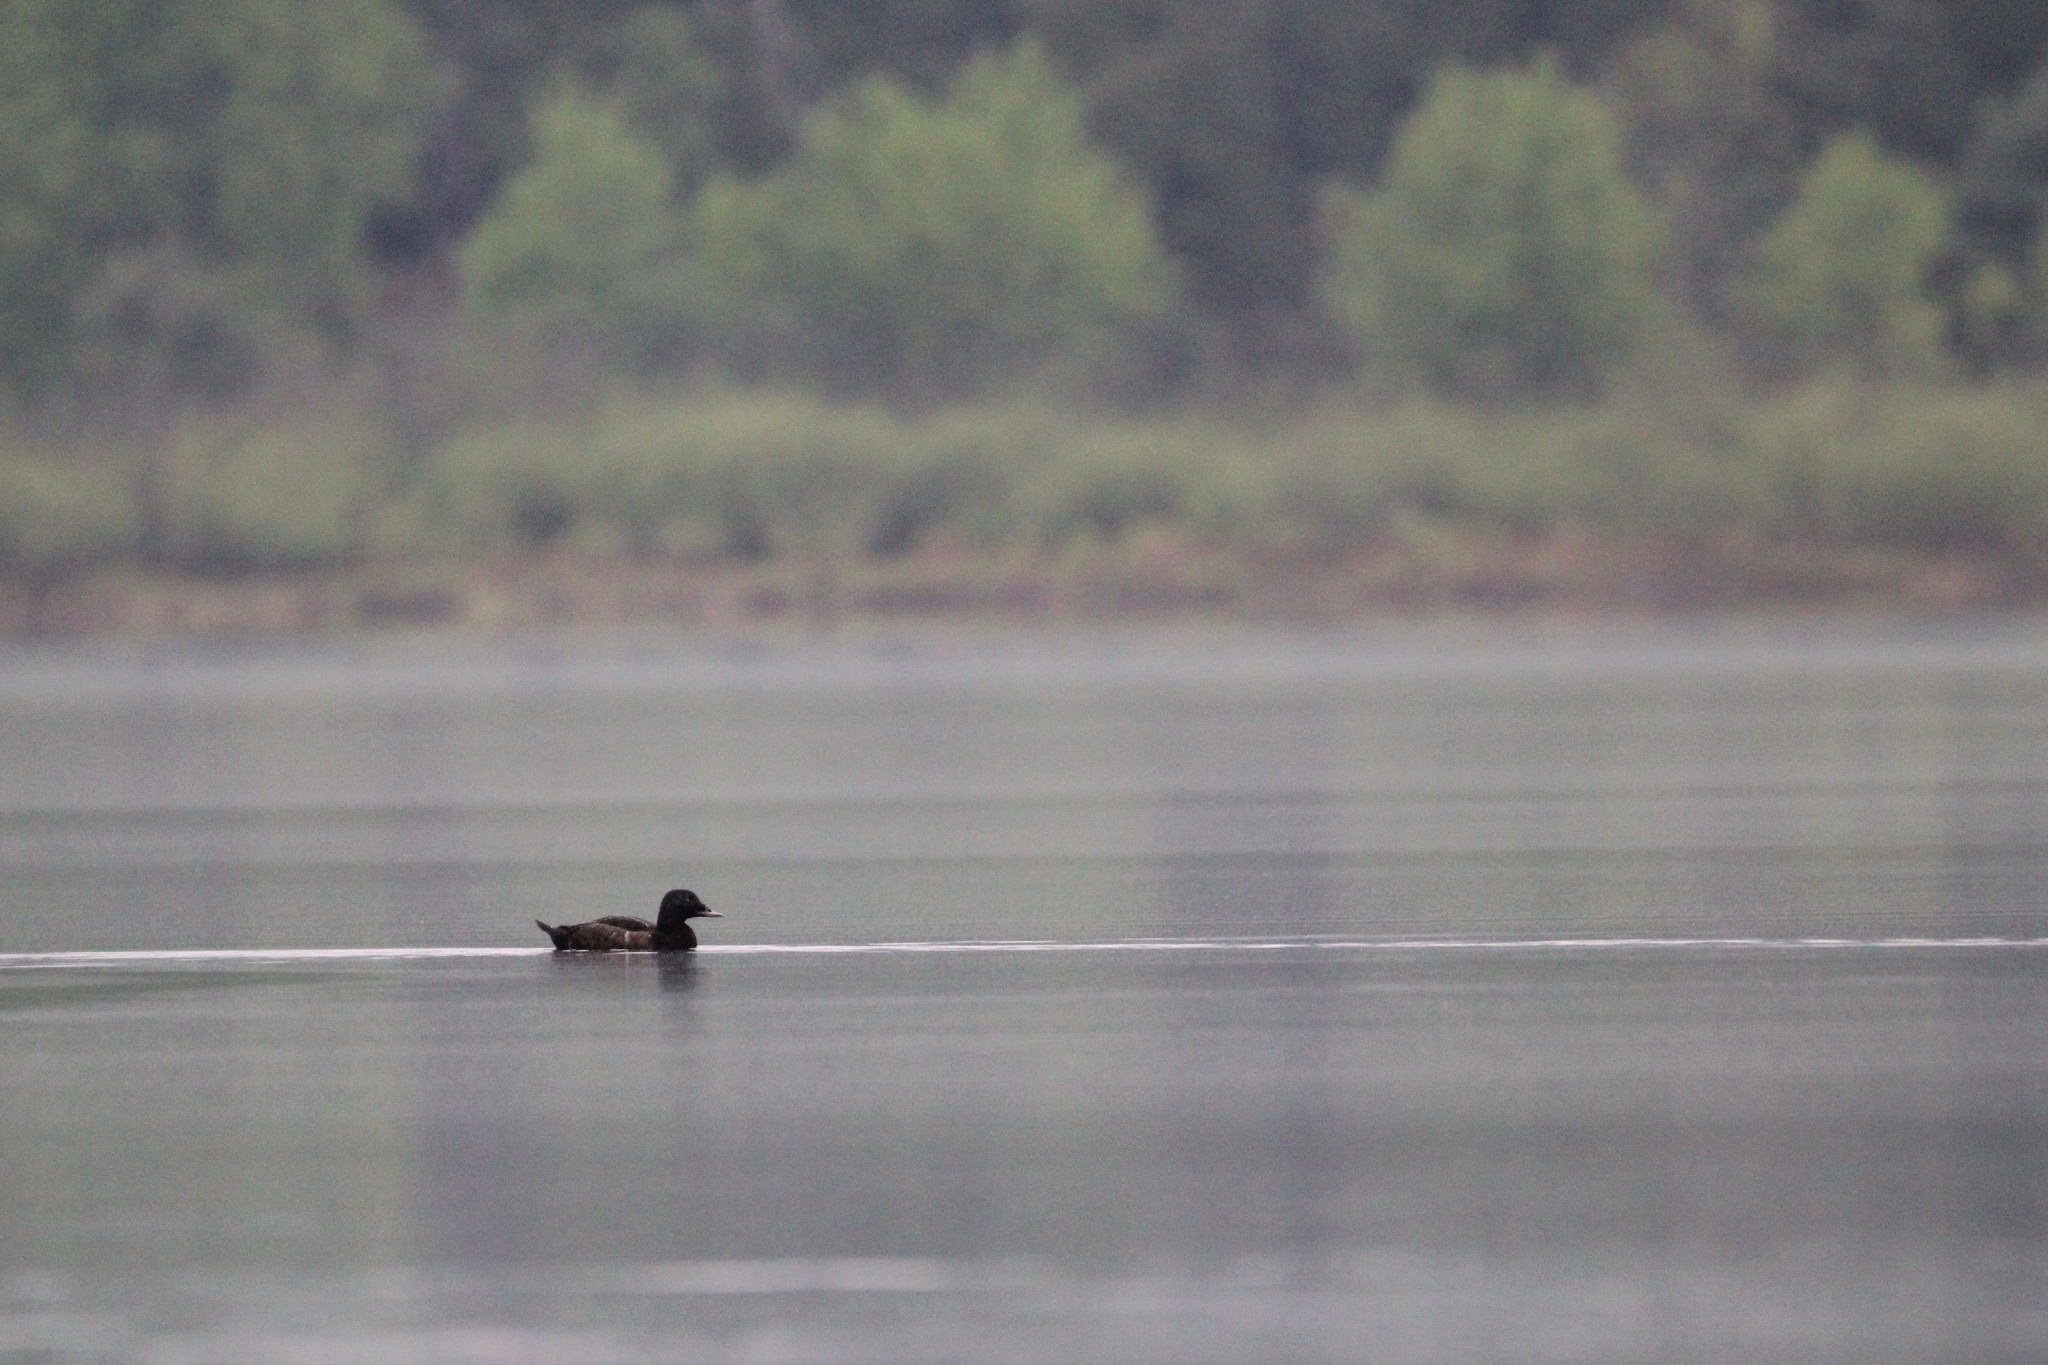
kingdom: Animalia
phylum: Chordata
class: Aves
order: Anseriformes
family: Anatidae
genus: Melanitta
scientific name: Melanitta deglandi
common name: White-winged scoter
